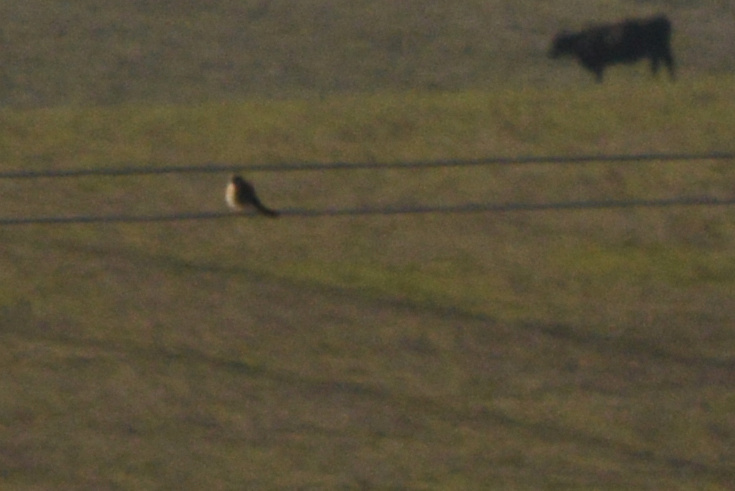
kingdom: Animalia
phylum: Chordata
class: Aves
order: Falconiformes
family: Falconidae
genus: Falco
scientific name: Falco sparverius
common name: American kestrel
